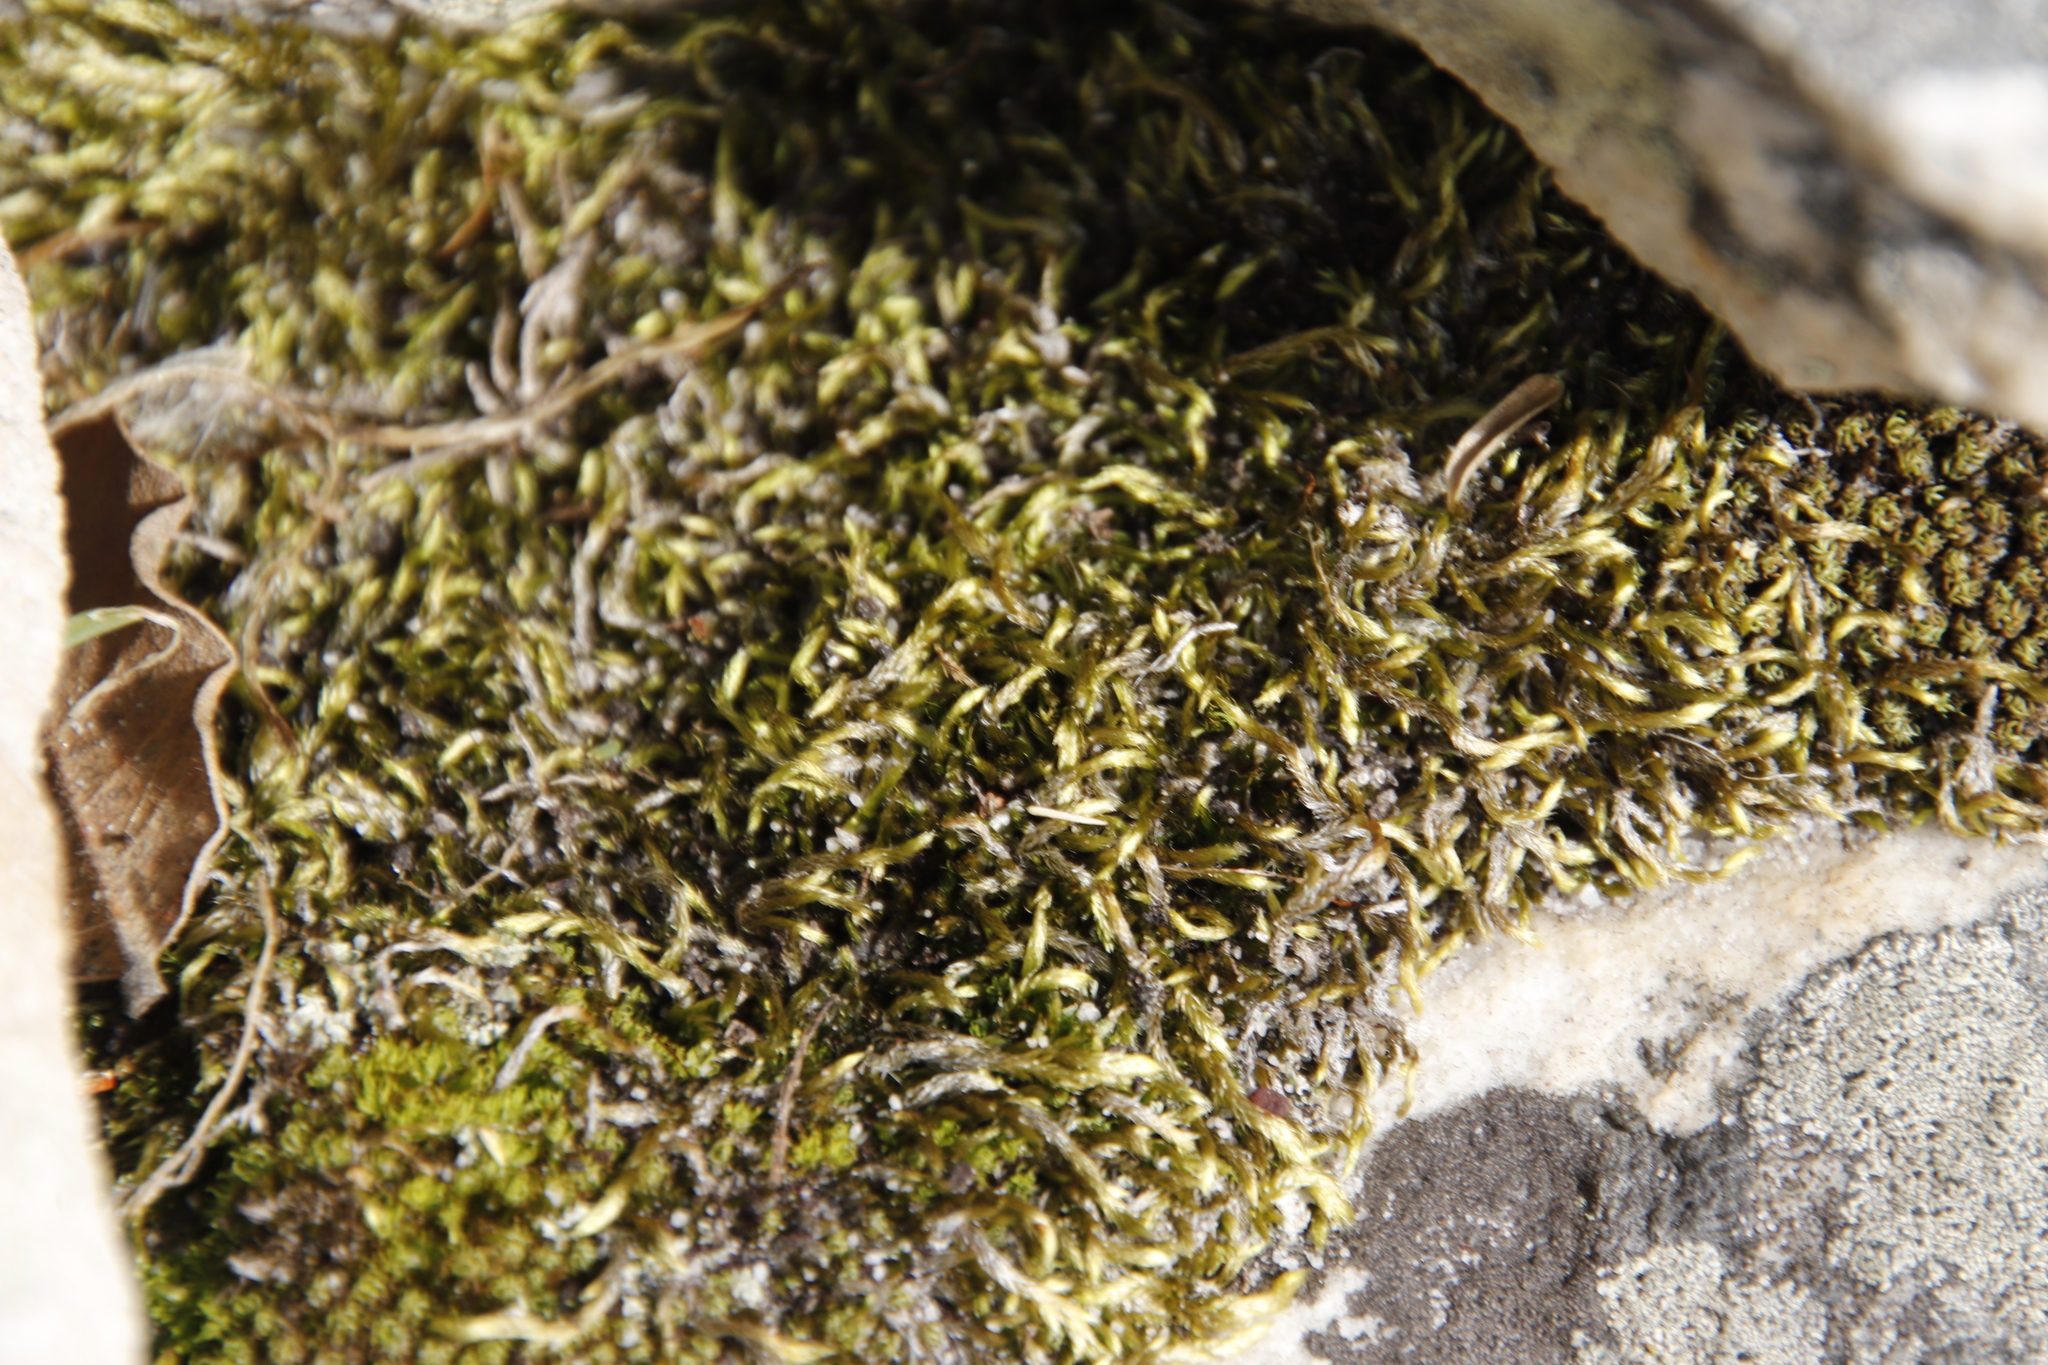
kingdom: Plantae
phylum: Bryophyta
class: Bryopsida
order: Hypnales
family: Fabroniaceae
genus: Ischyrodon
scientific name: Ischyrodon lepturus
